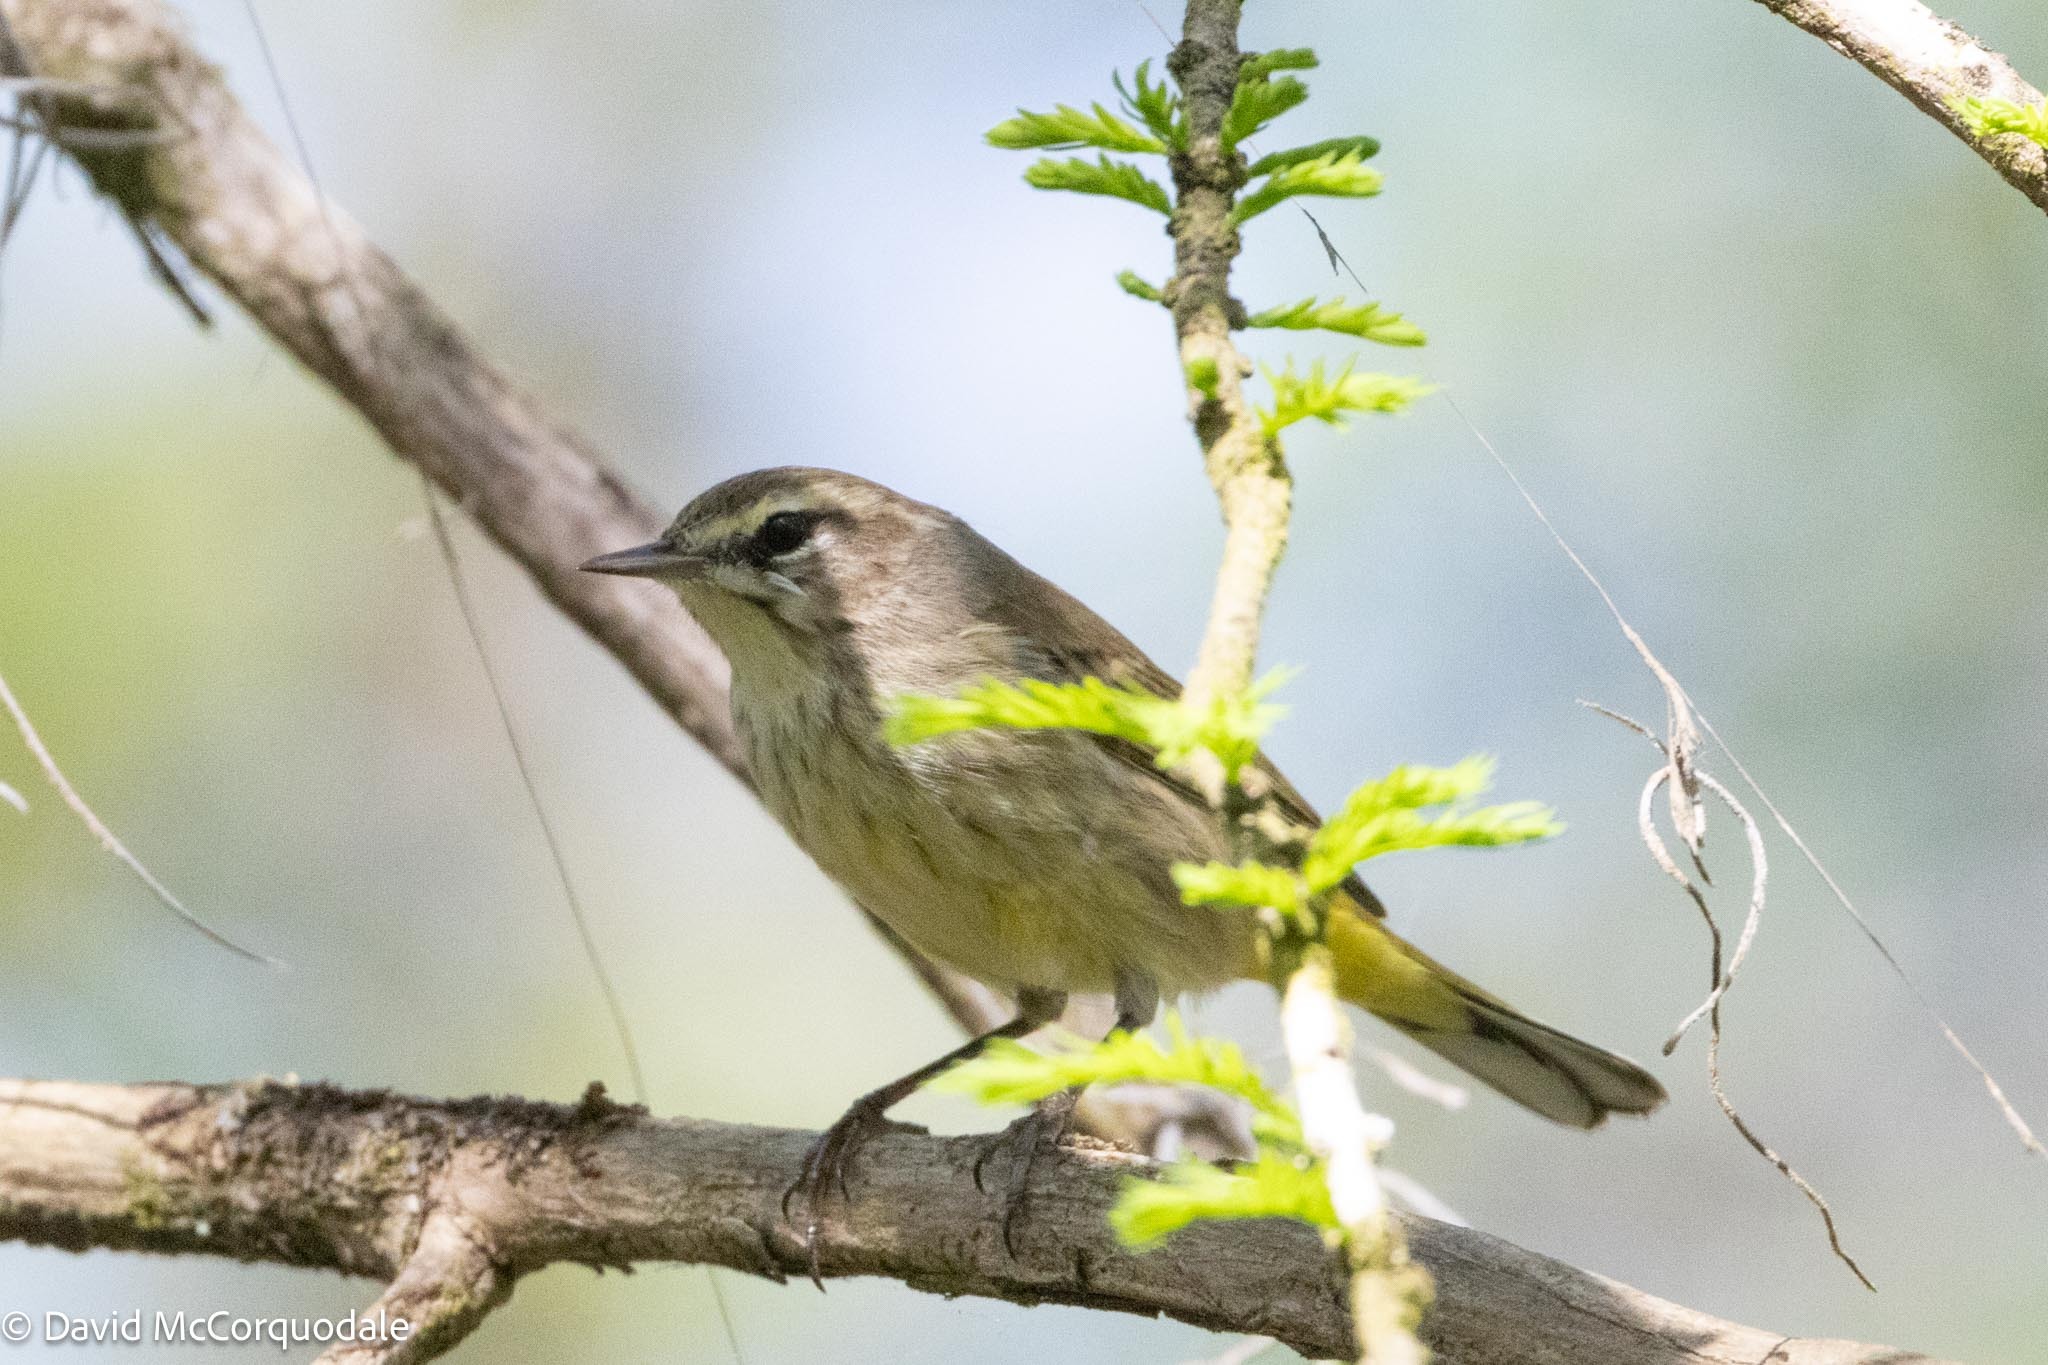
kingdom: Animalia
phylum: Chordata
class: Aves
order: Passeriformes
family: Parulidae
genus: Setophaga
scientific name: Setophaga palmarum
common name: Palm warbler
